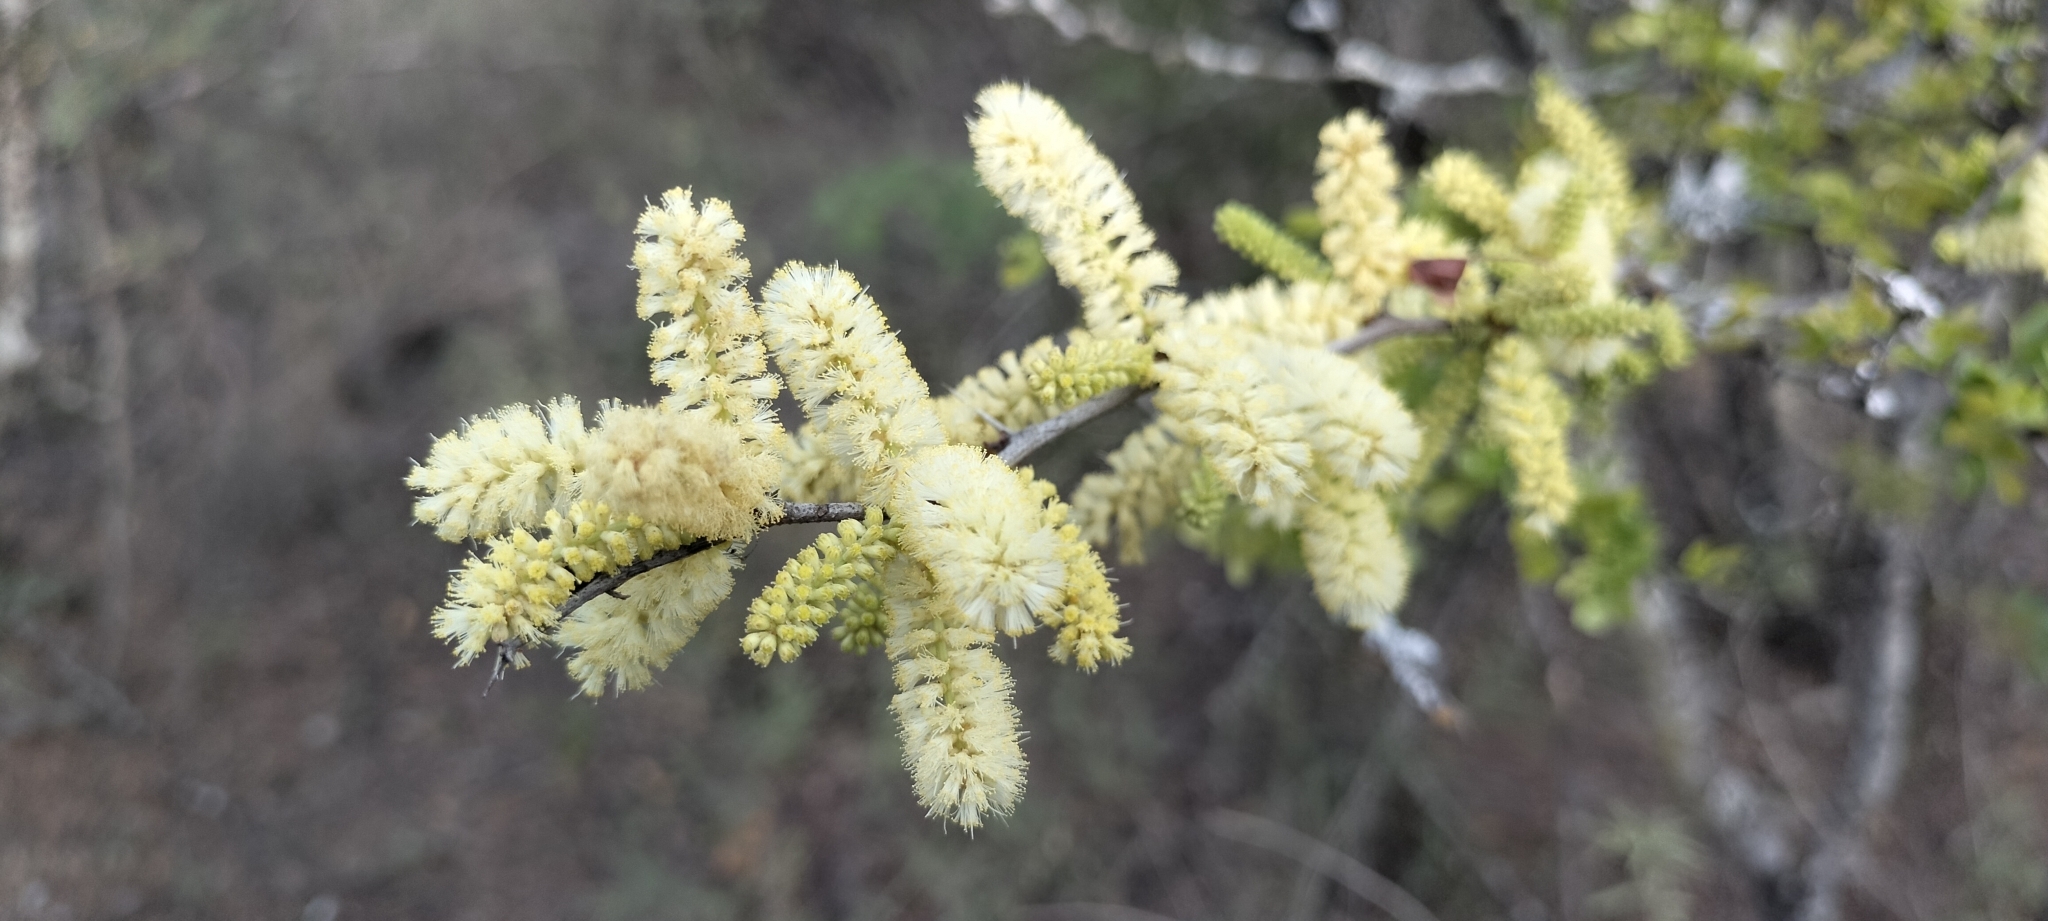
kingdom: Plantae
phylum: Tracheophyta
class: Magnoliopsida
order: Fabales
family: Fabaceae
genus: Vachellia
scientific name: Vachellia rigidula
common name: Blackbrush
